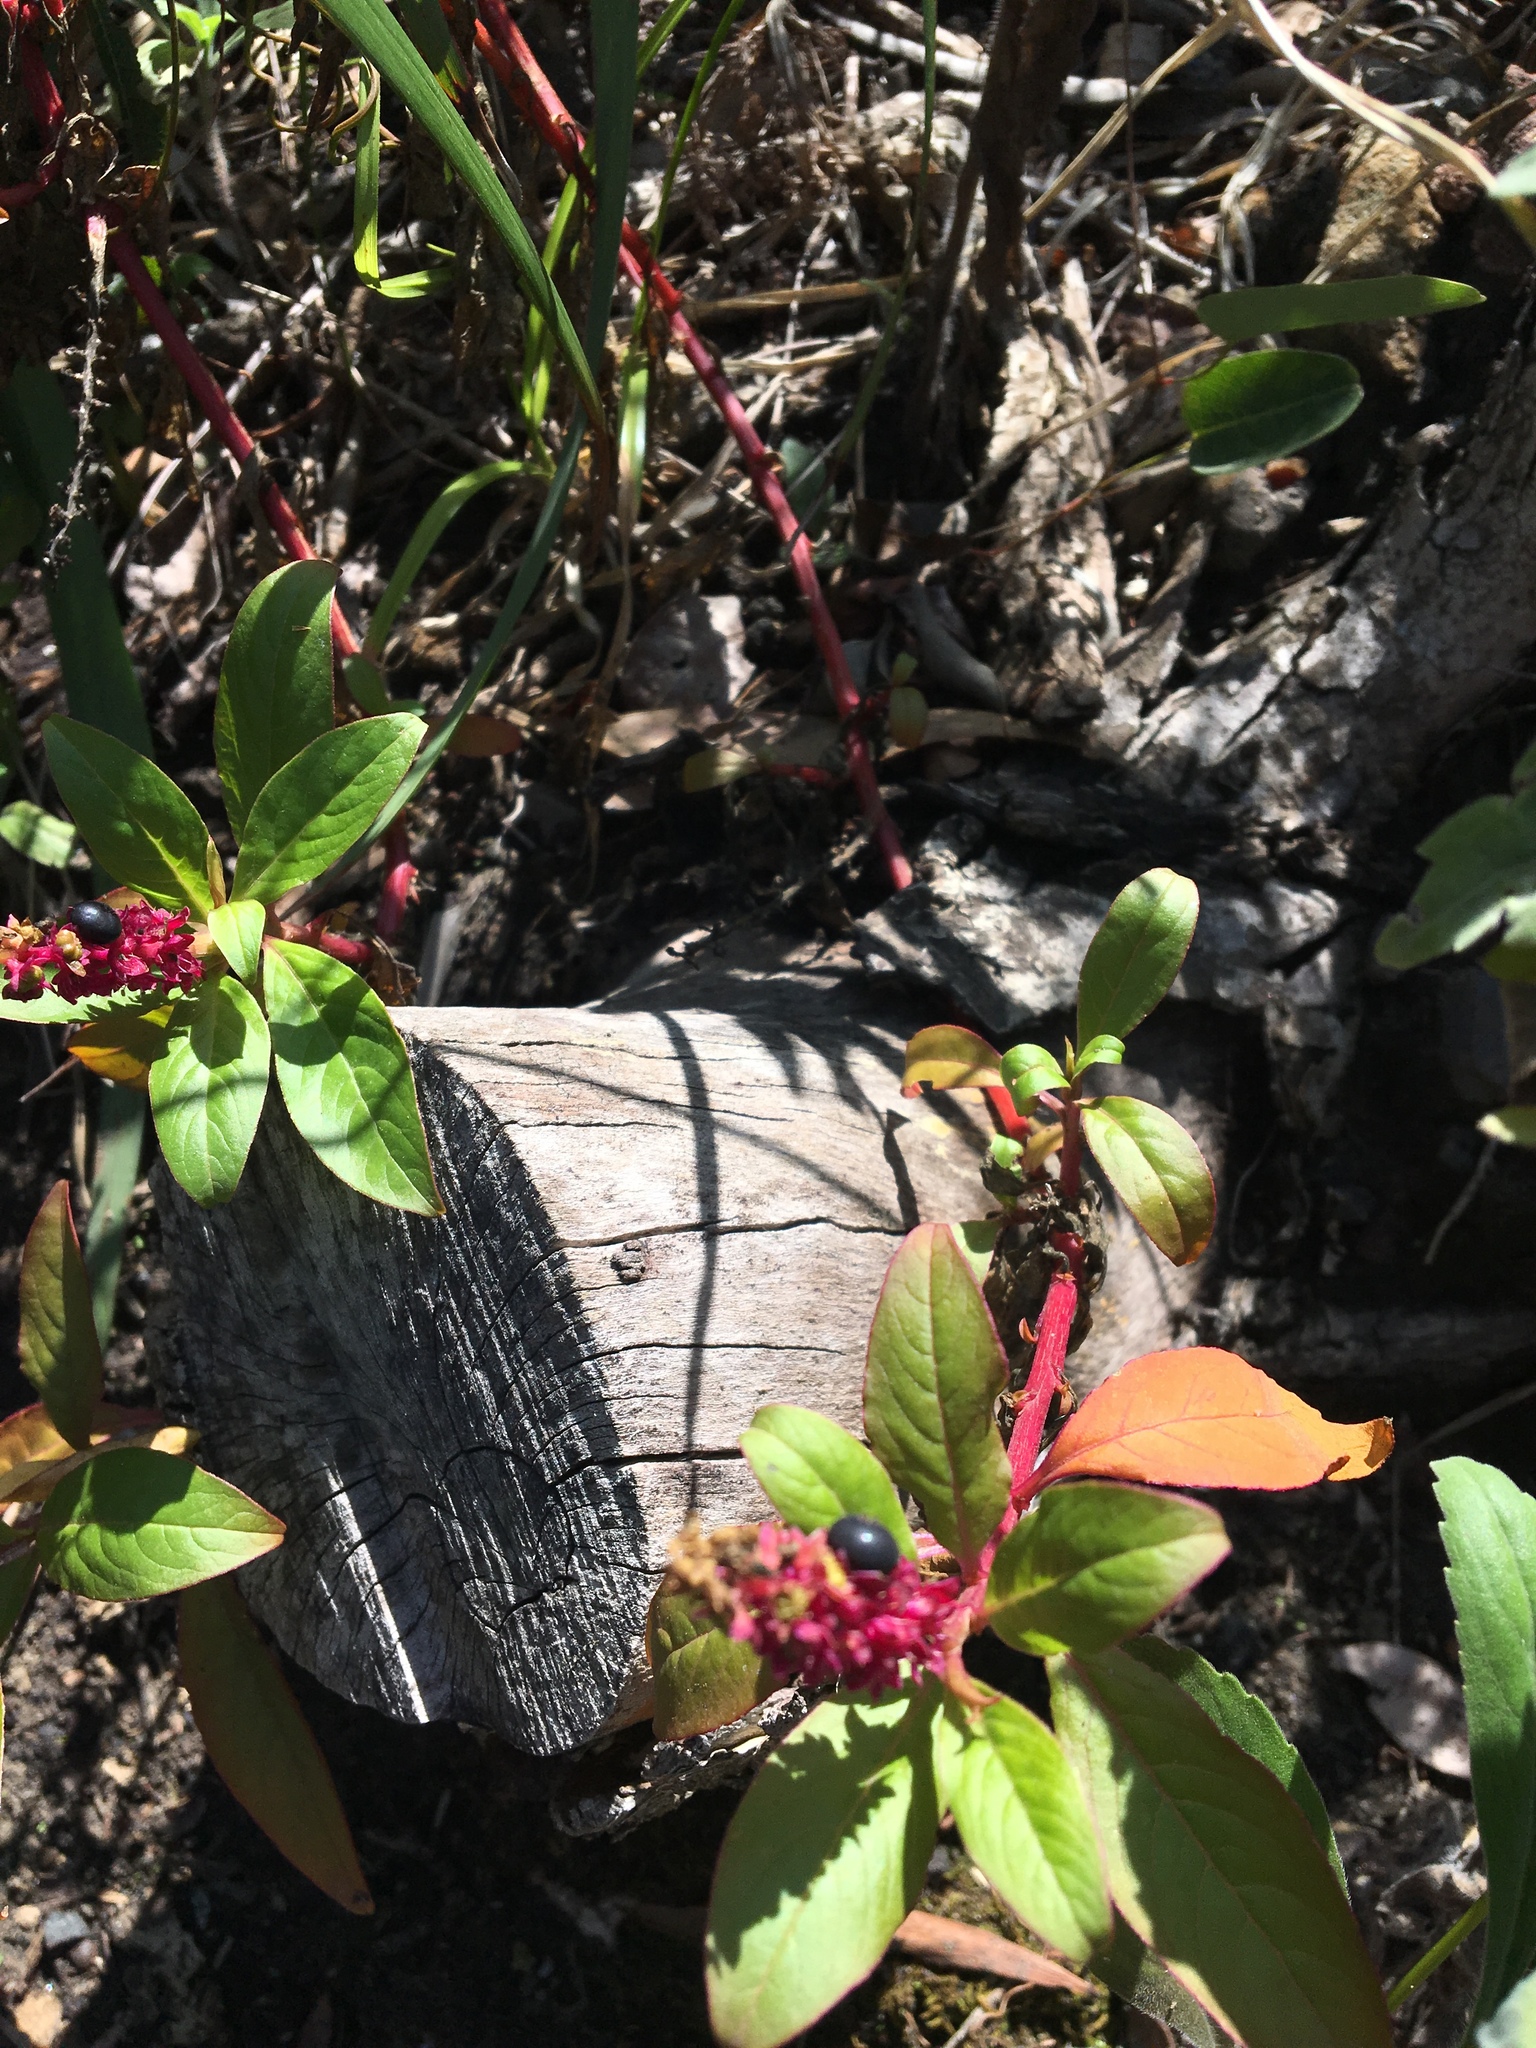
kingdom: Plantae
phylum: Tracheophyta
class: Magnoliopsida
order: Caryophyllales
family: Phytolaccaceae
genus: Phytolacca
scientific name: Phytolacca icosandra
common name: Button pokeweed
